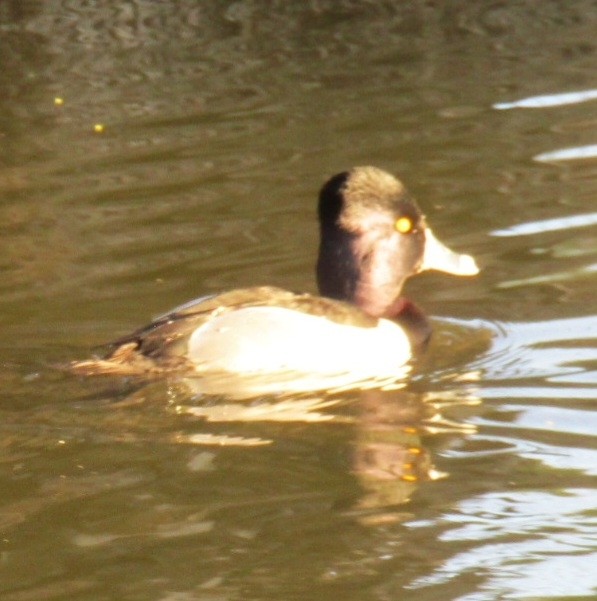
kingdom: Animalia
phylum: Chordata
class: Aves
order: Anseriformes
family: Anatidae
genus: Aythya
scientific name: Aythya collaris
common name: Ring-necked duck
